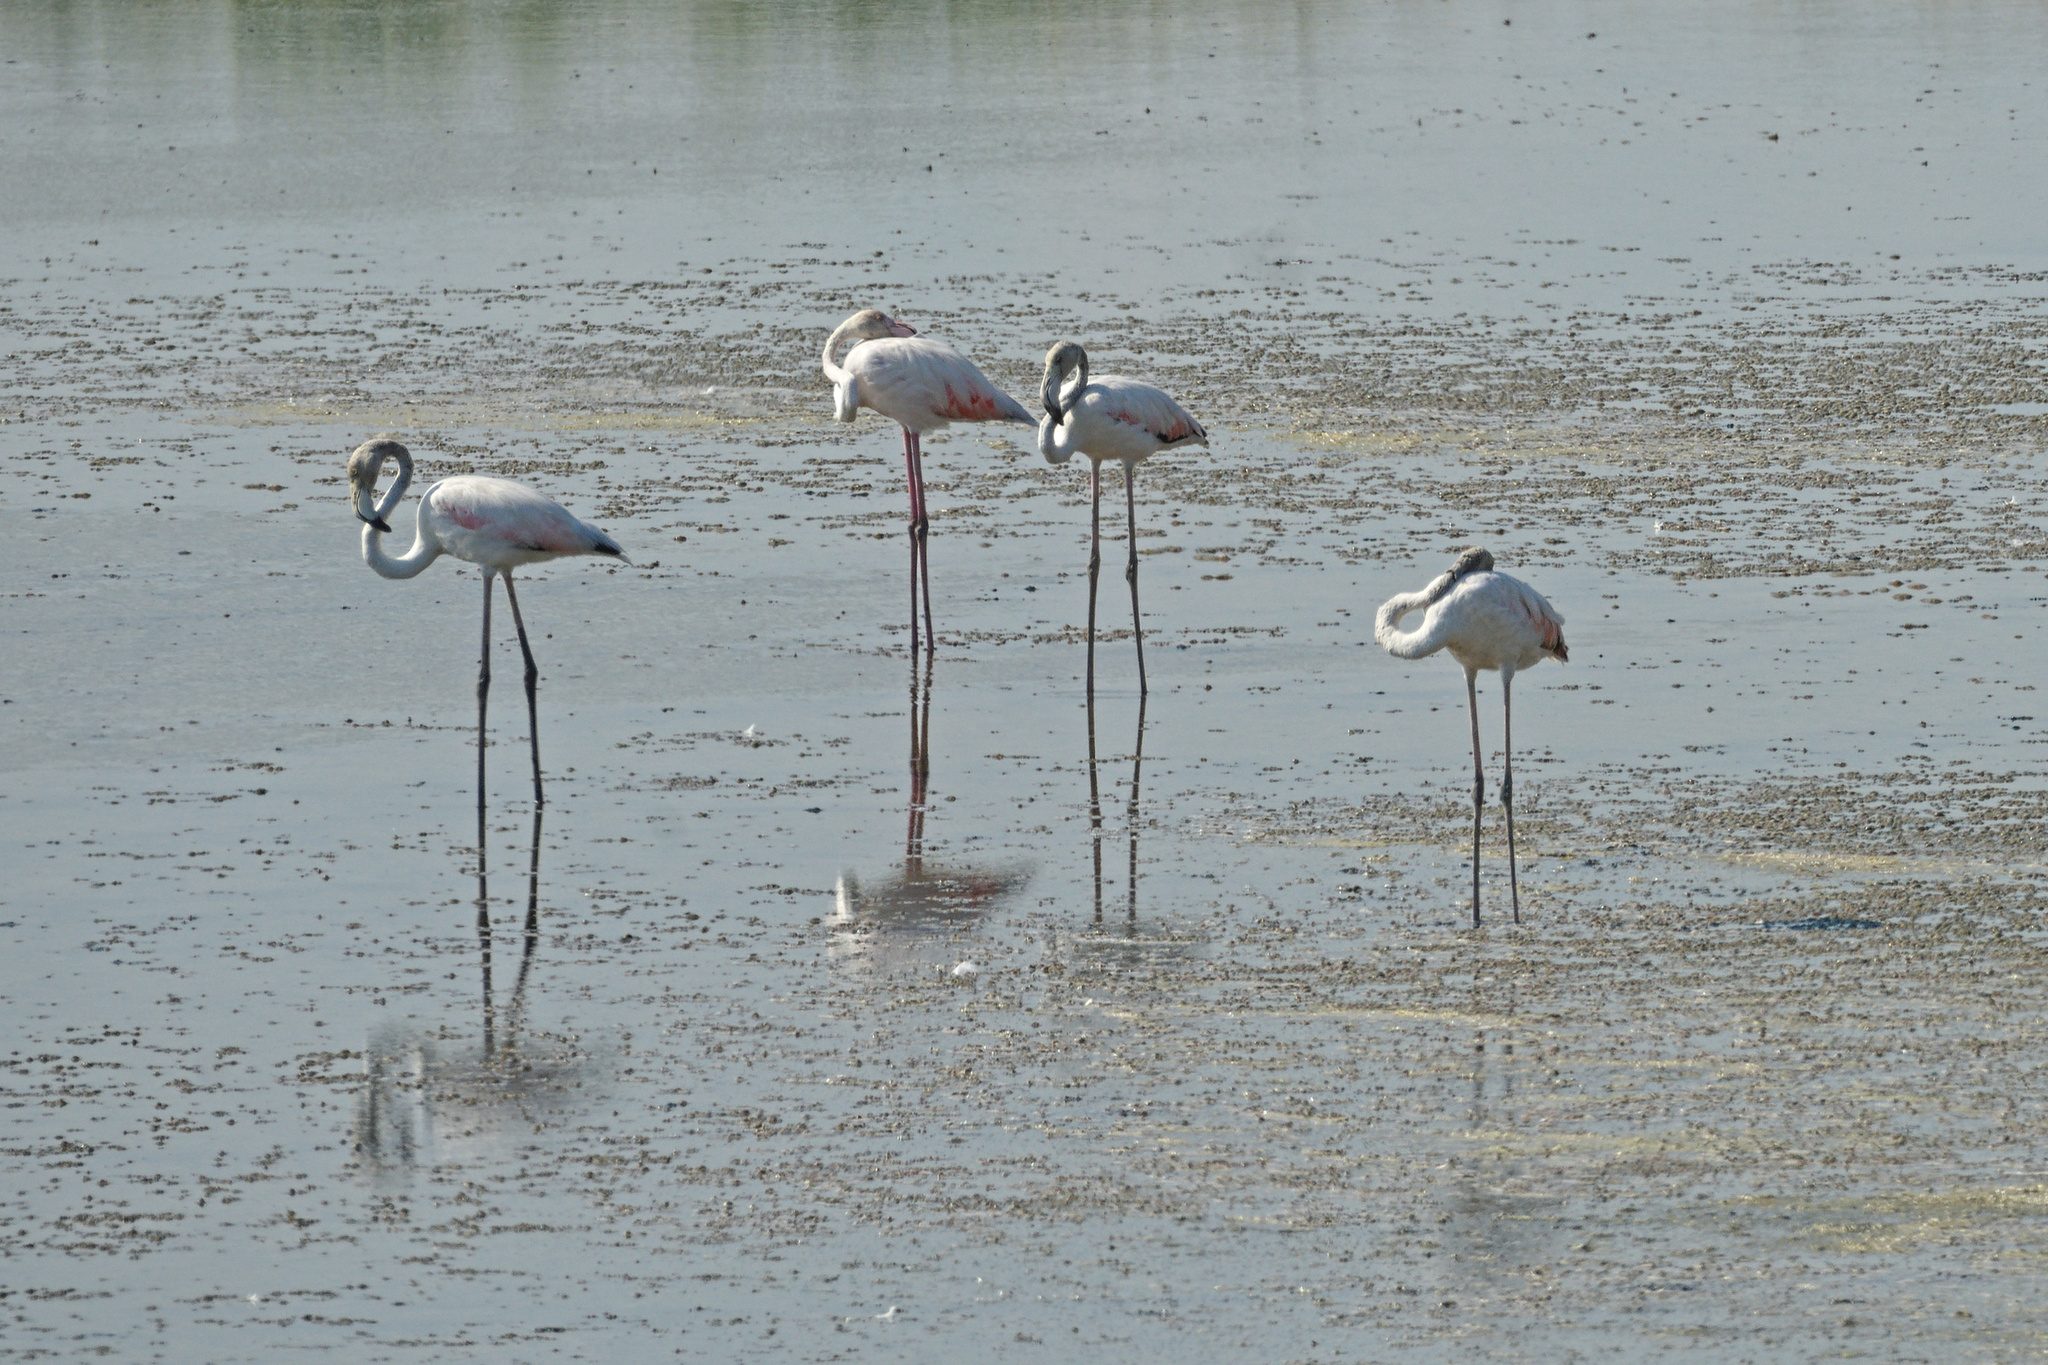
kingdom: Animalia
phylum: Chordata
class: Aves
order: Phoenicopteriformes
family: Phoenicopteridae
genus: Phoenicopterus
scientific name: Phoenicopterus roseus
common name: Greater flamingo
